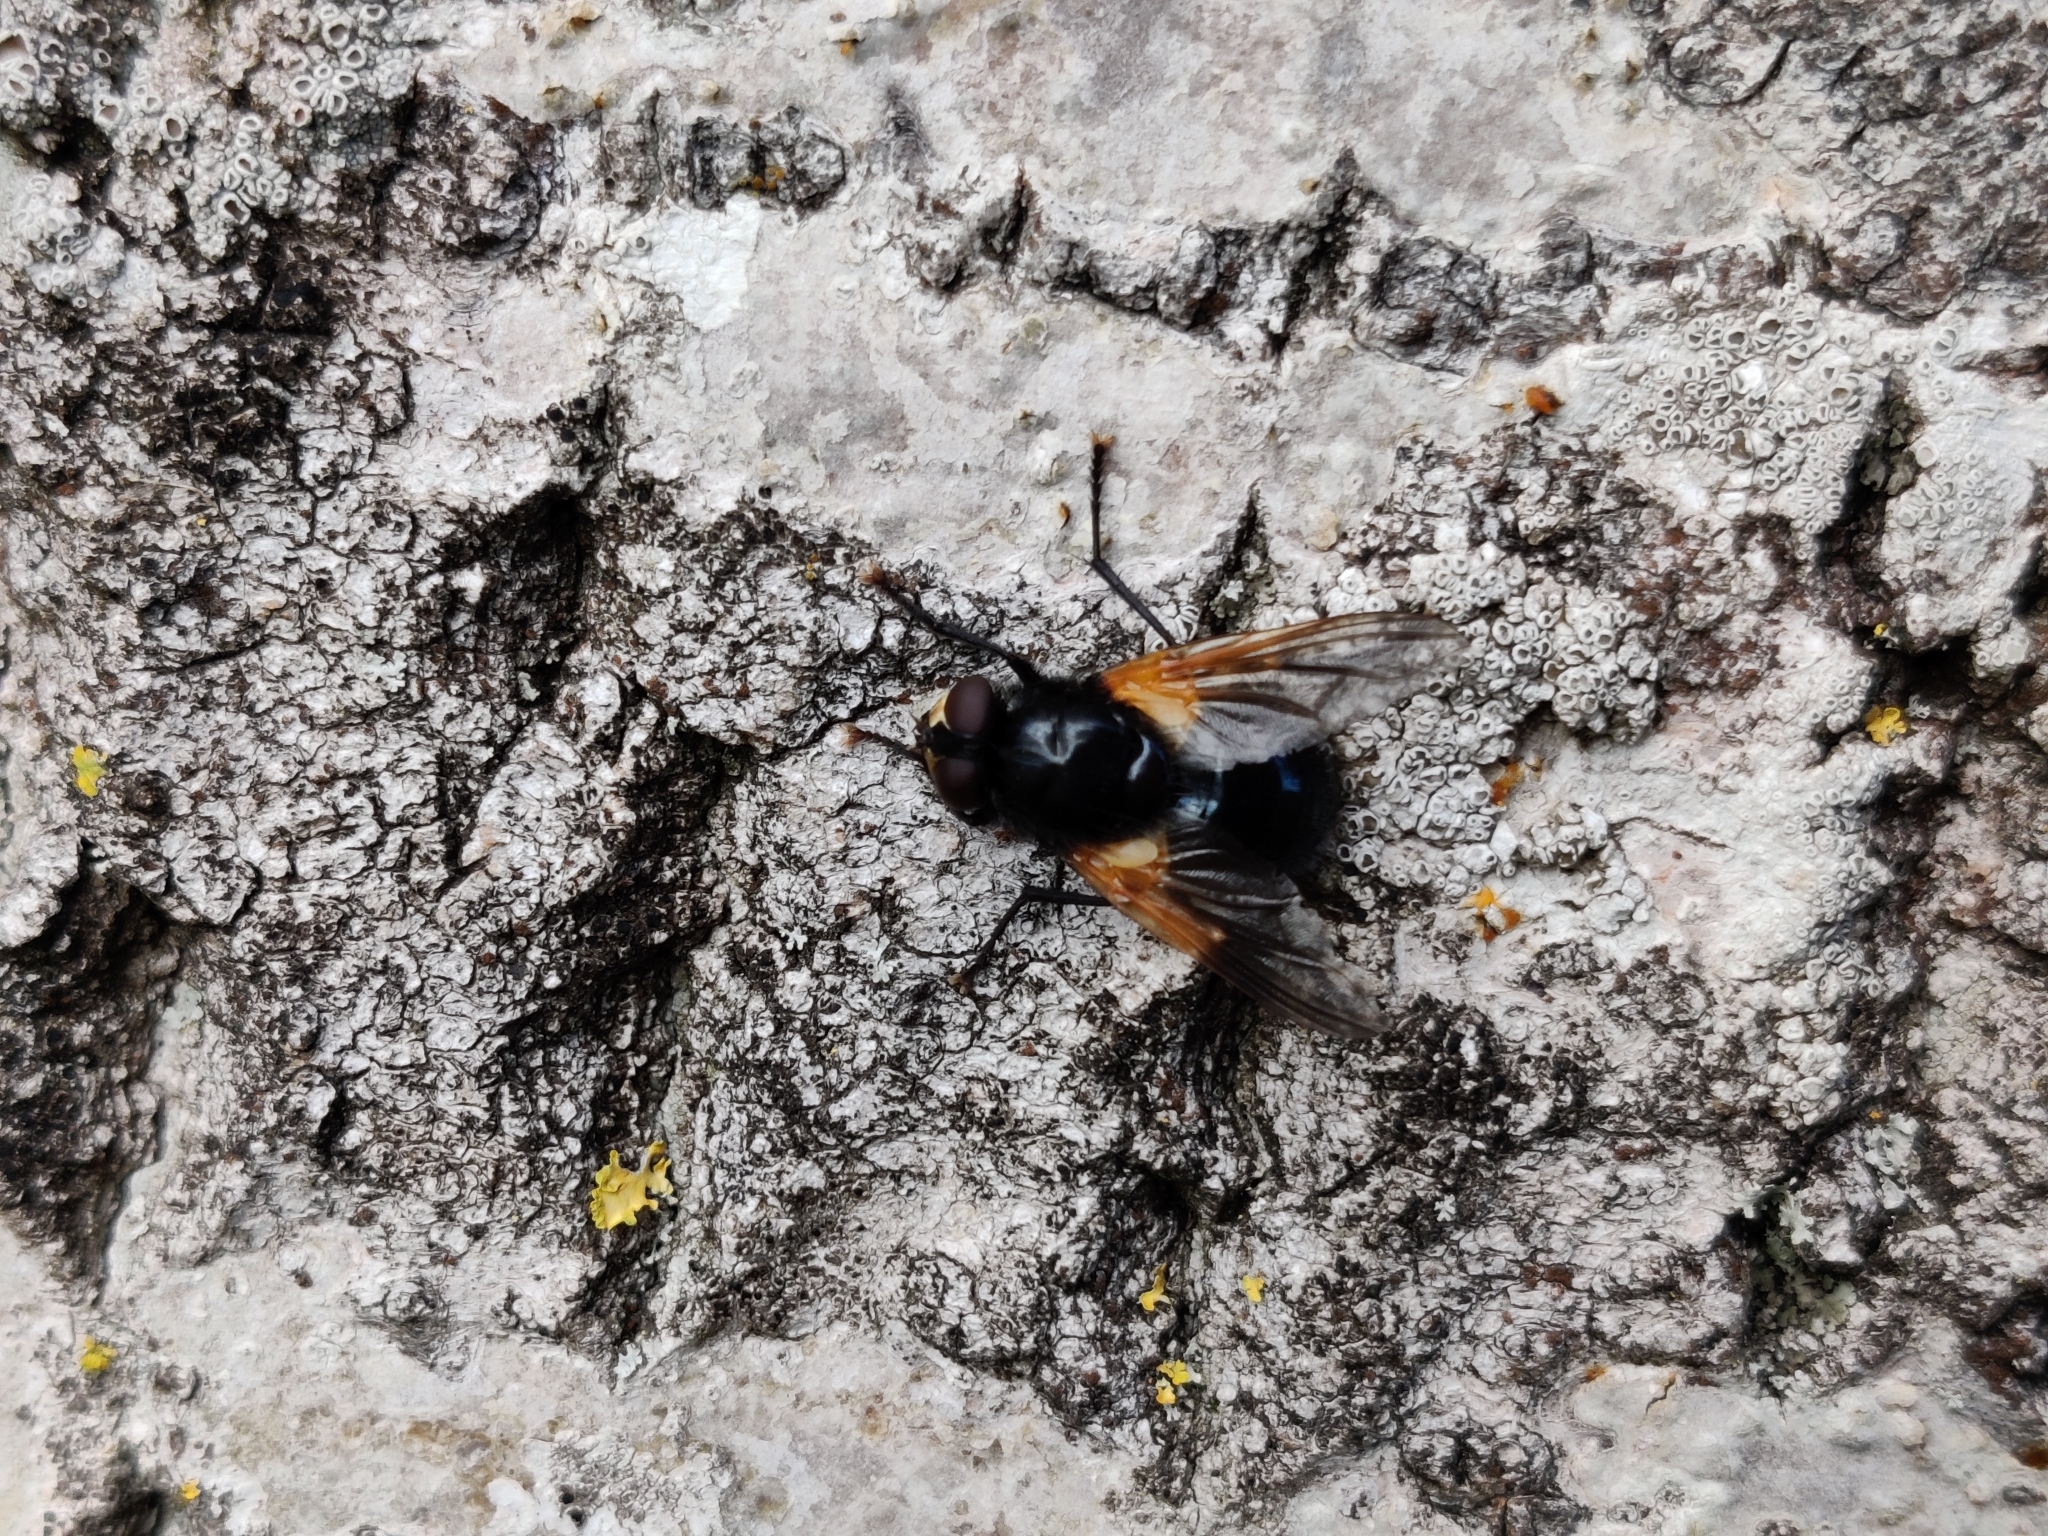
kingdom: Animalia
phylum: Arthropoda
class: Insecta
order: Diptera
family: Muscidae
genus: Mesembrina
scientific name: Mesembrina meridiana
